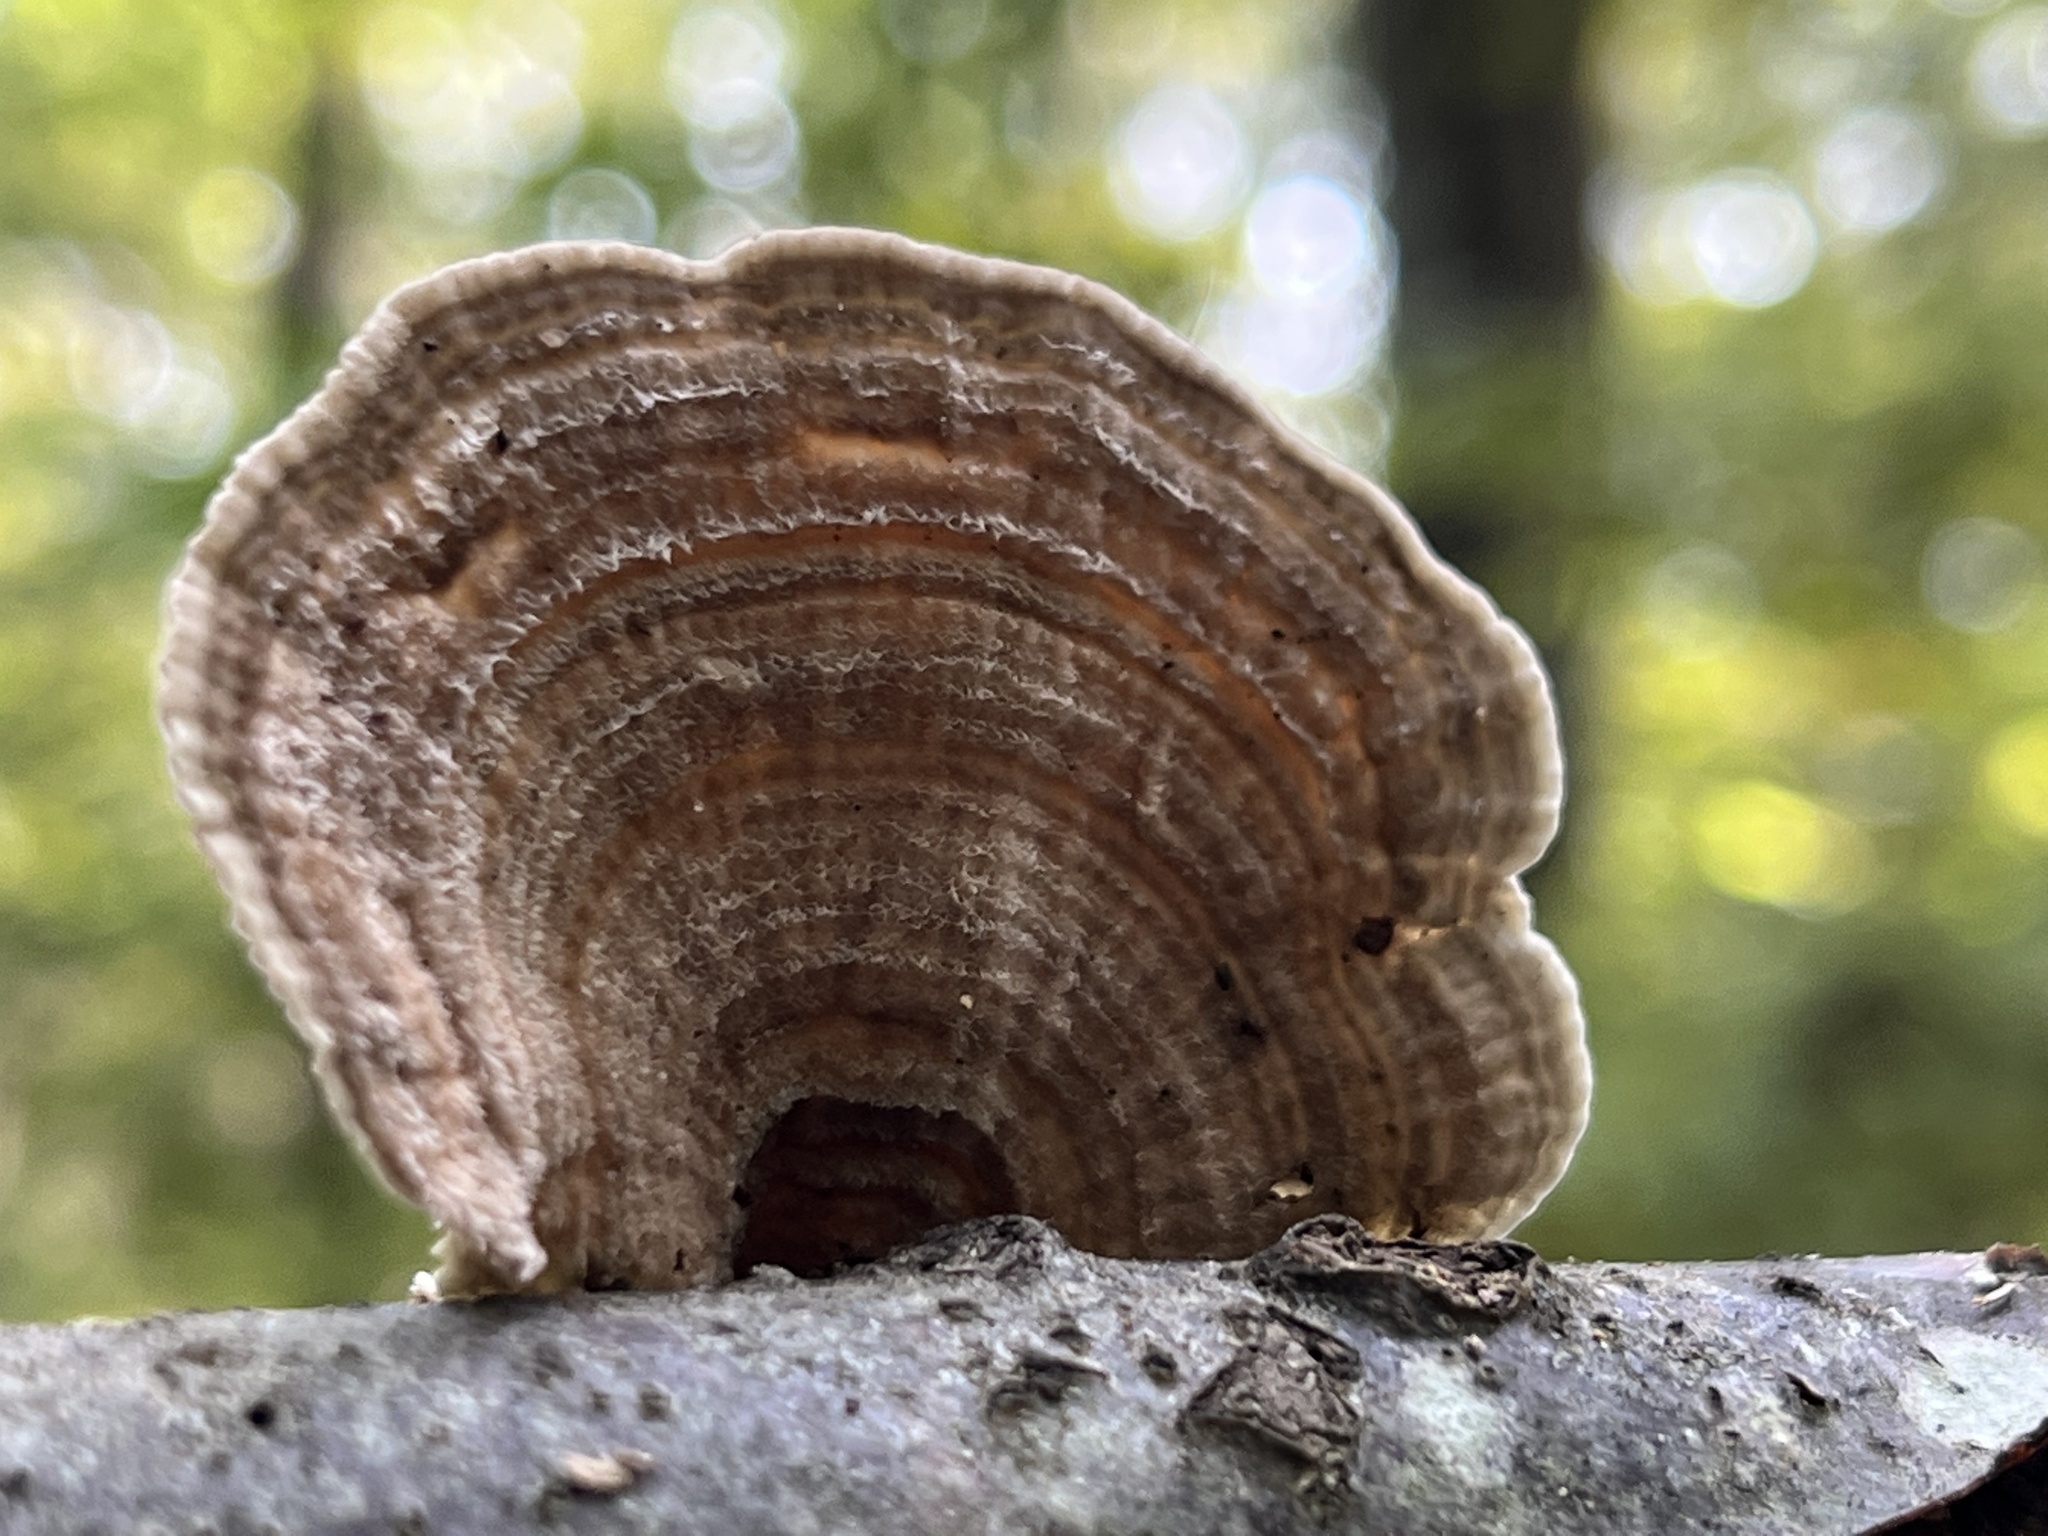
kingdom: Fungi
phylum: Basidiomycota
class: Agaricomycetes
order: Polyporales
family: Polyporaceae
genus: Lenzites
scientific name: Lenzites betulinus
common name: Birch mazegill
